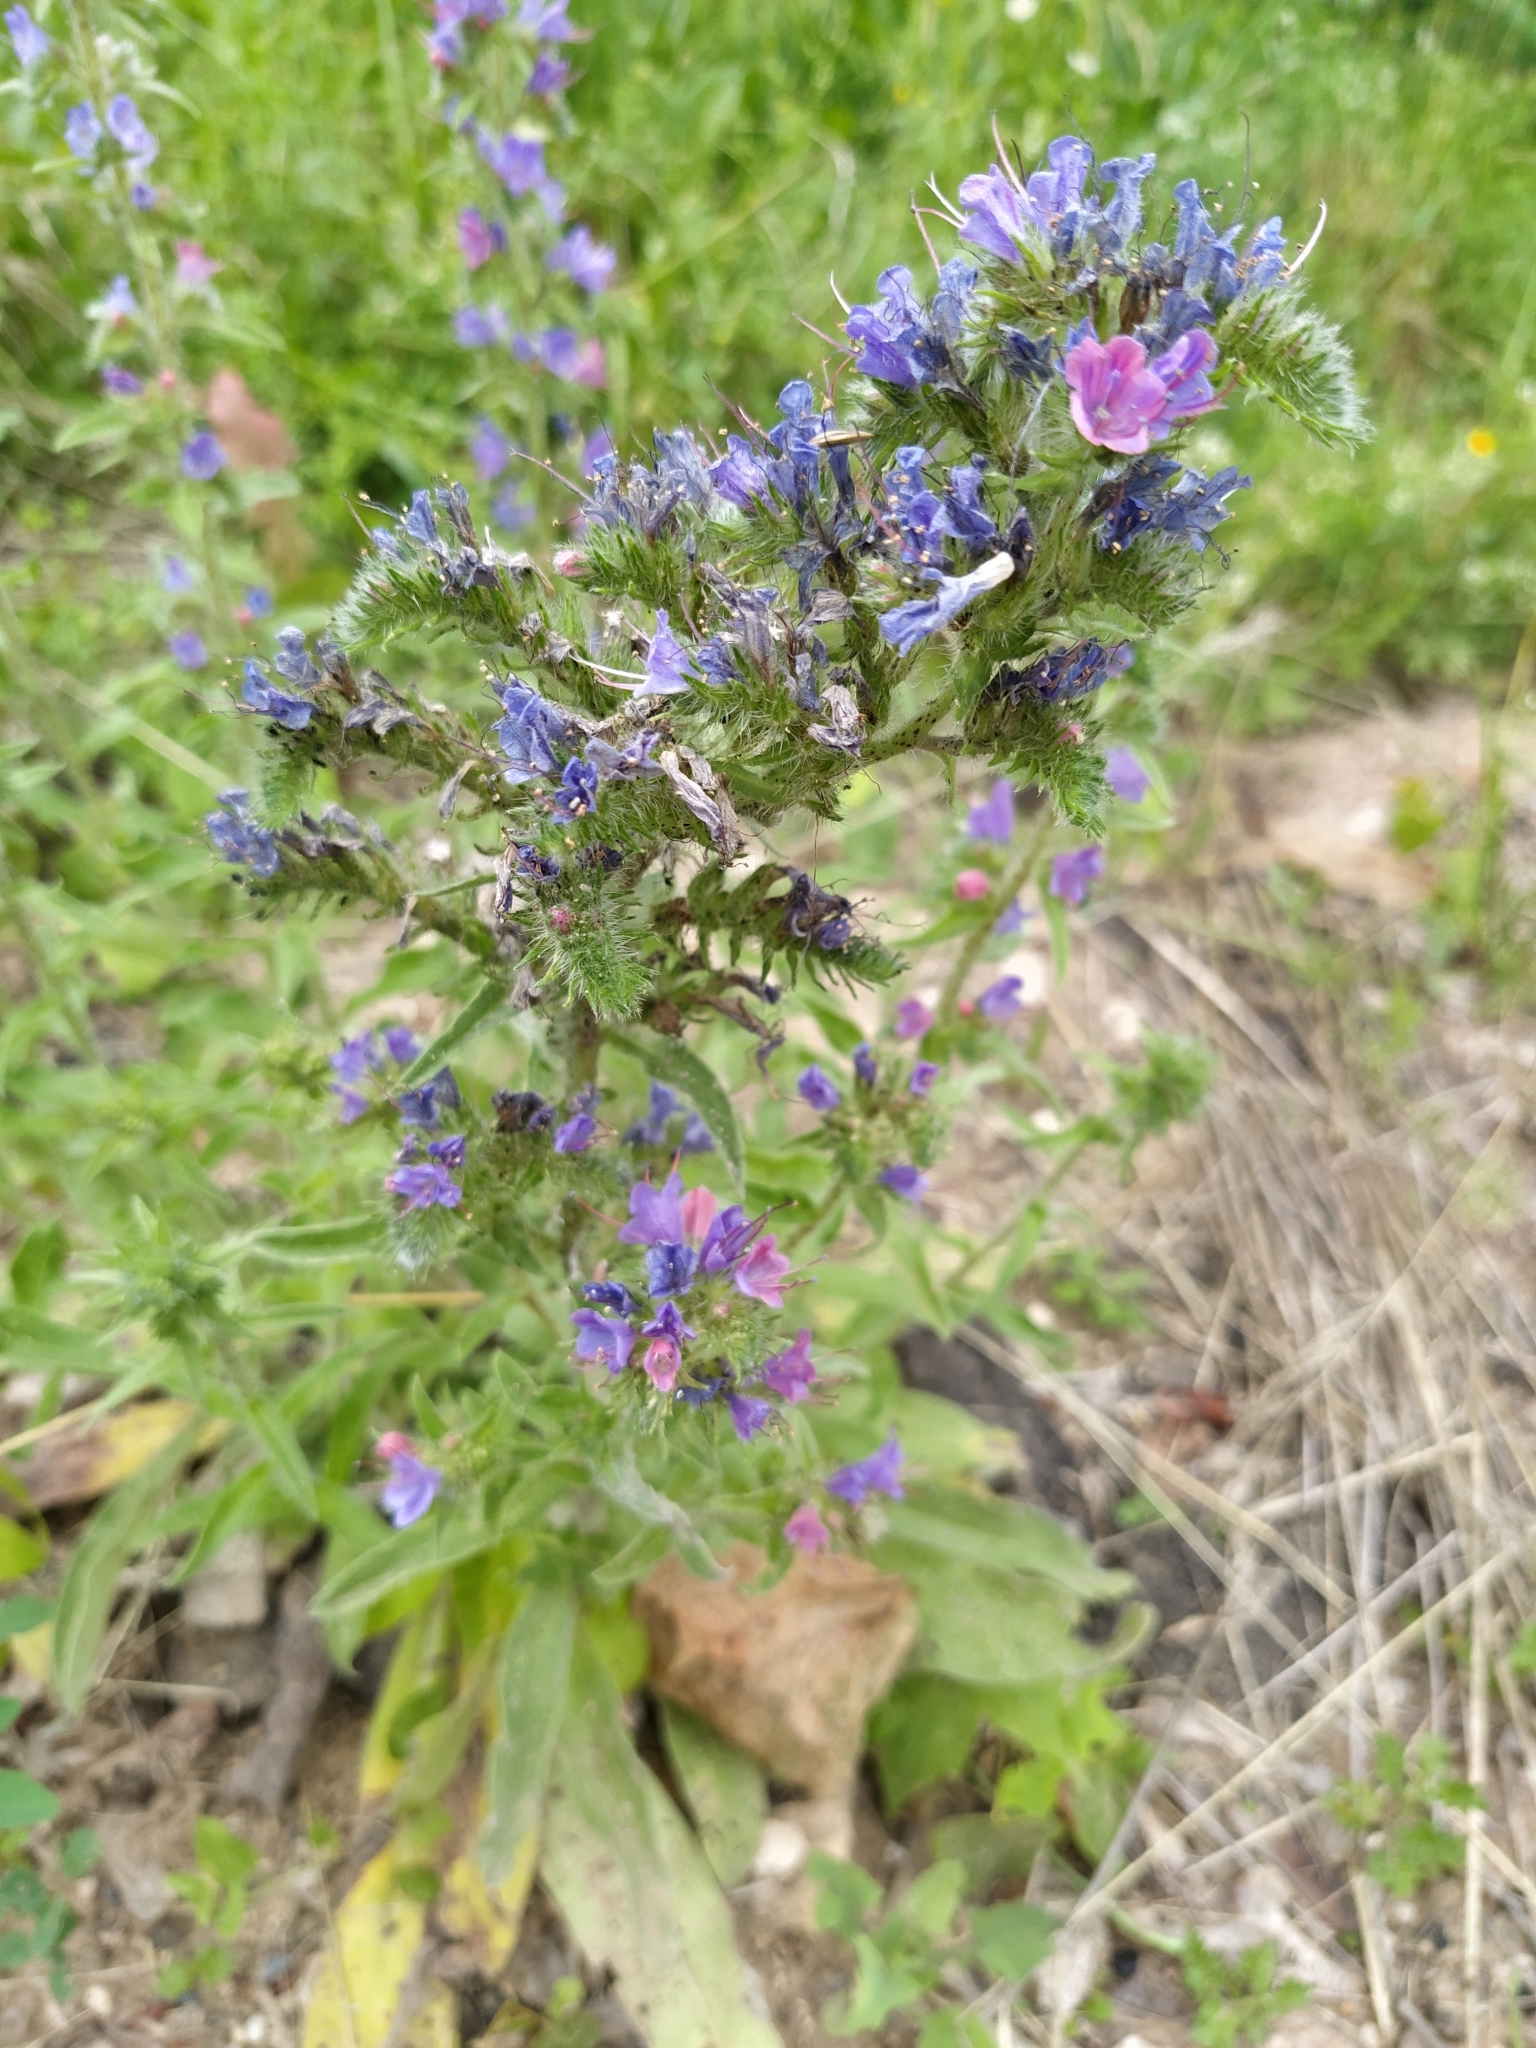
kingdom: Plantae
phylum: Tracheophyta
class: Magnoliopsida
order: Boraginales
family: Boraginaceae
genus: Echium
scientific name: Echium vulgare
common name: Common viper's bugloss
